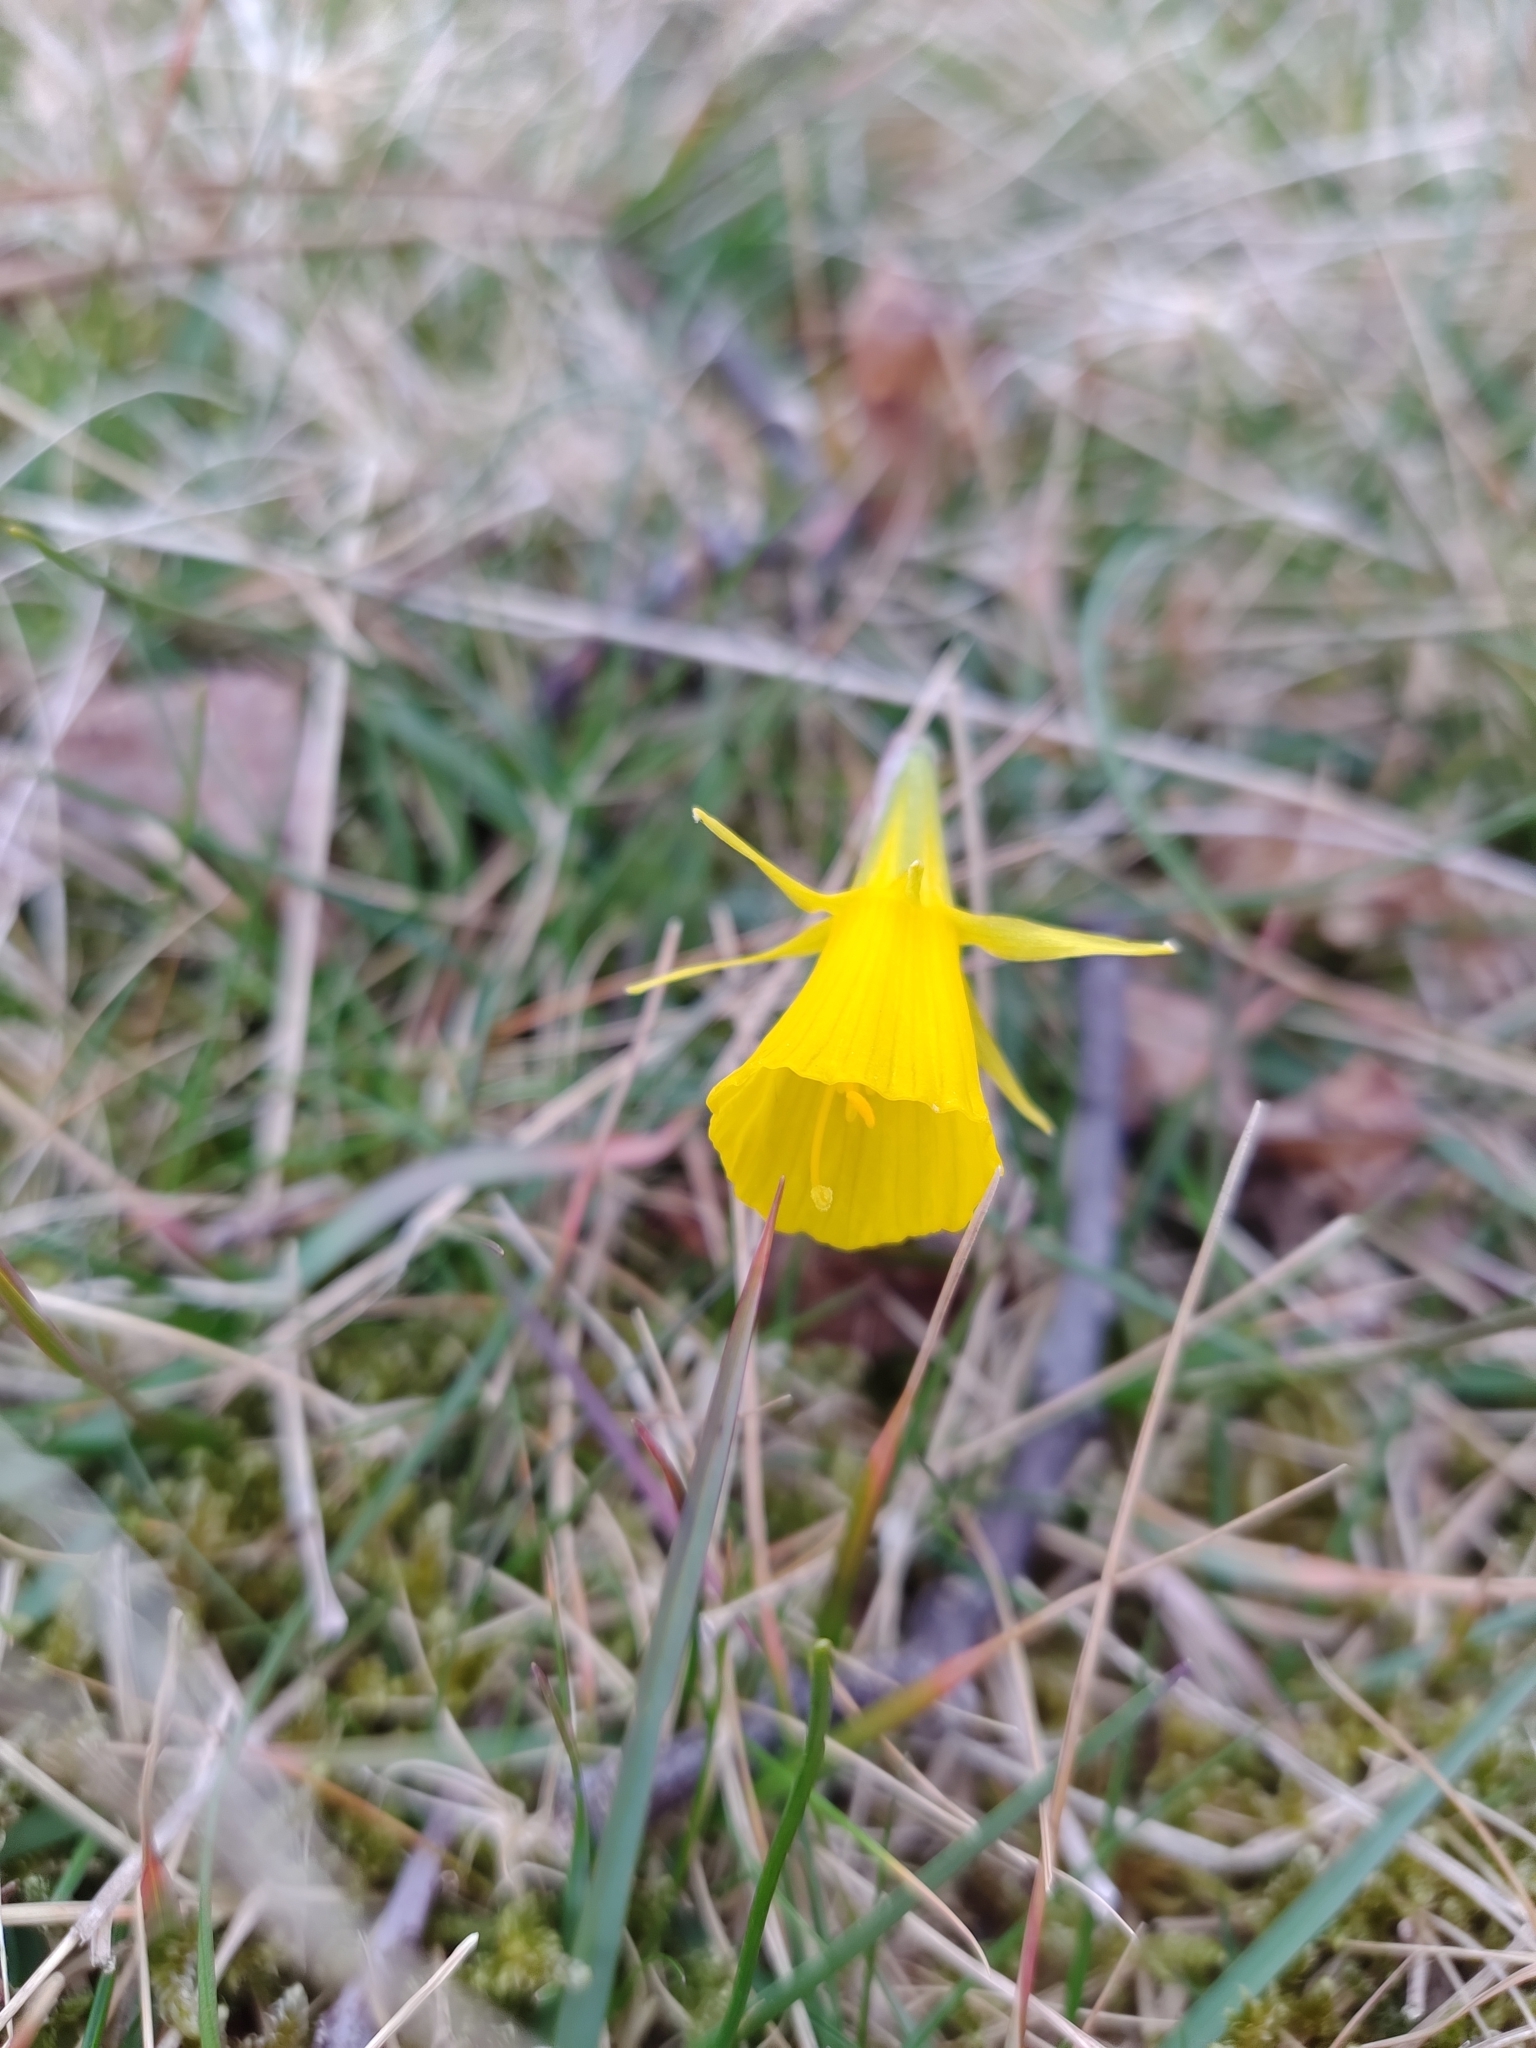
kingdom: Plantae
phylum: Tracheophyta
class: Liliopsida
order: Asparagales
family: Amaryllidaceae
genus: Narcissus
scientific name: Narcissus bulbocodium
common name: Hoop-petticoat daffodil
